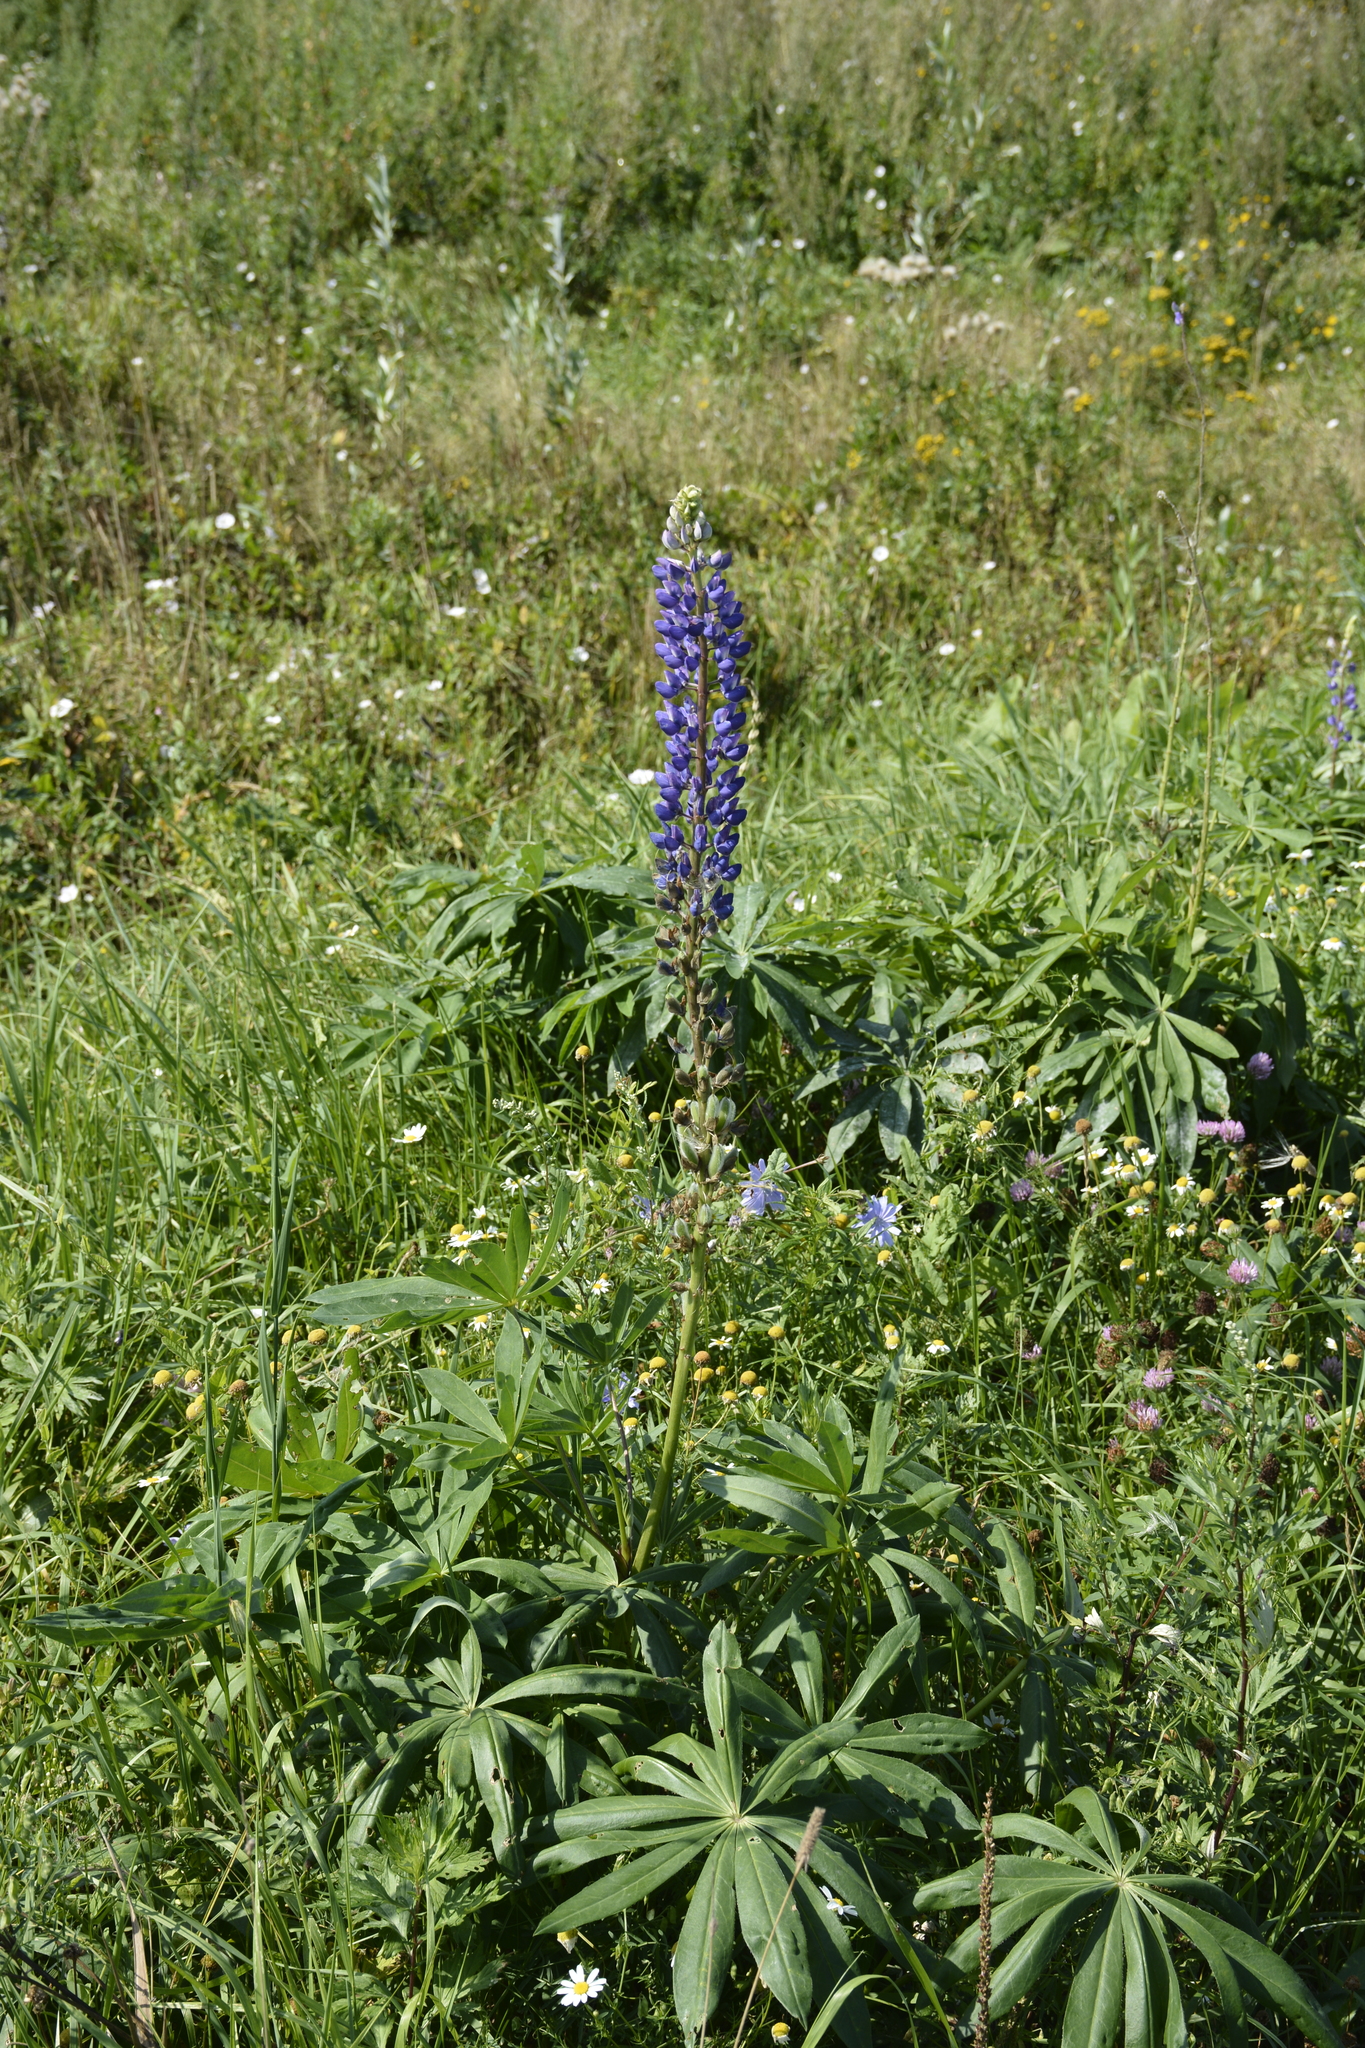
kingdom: Plantae
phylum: Tracheophyta
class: Magnoliopsida
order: Fabales
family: Fabaceae
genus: Lupinus
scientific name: Lupinus polyphyllus
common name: Garden lupin
